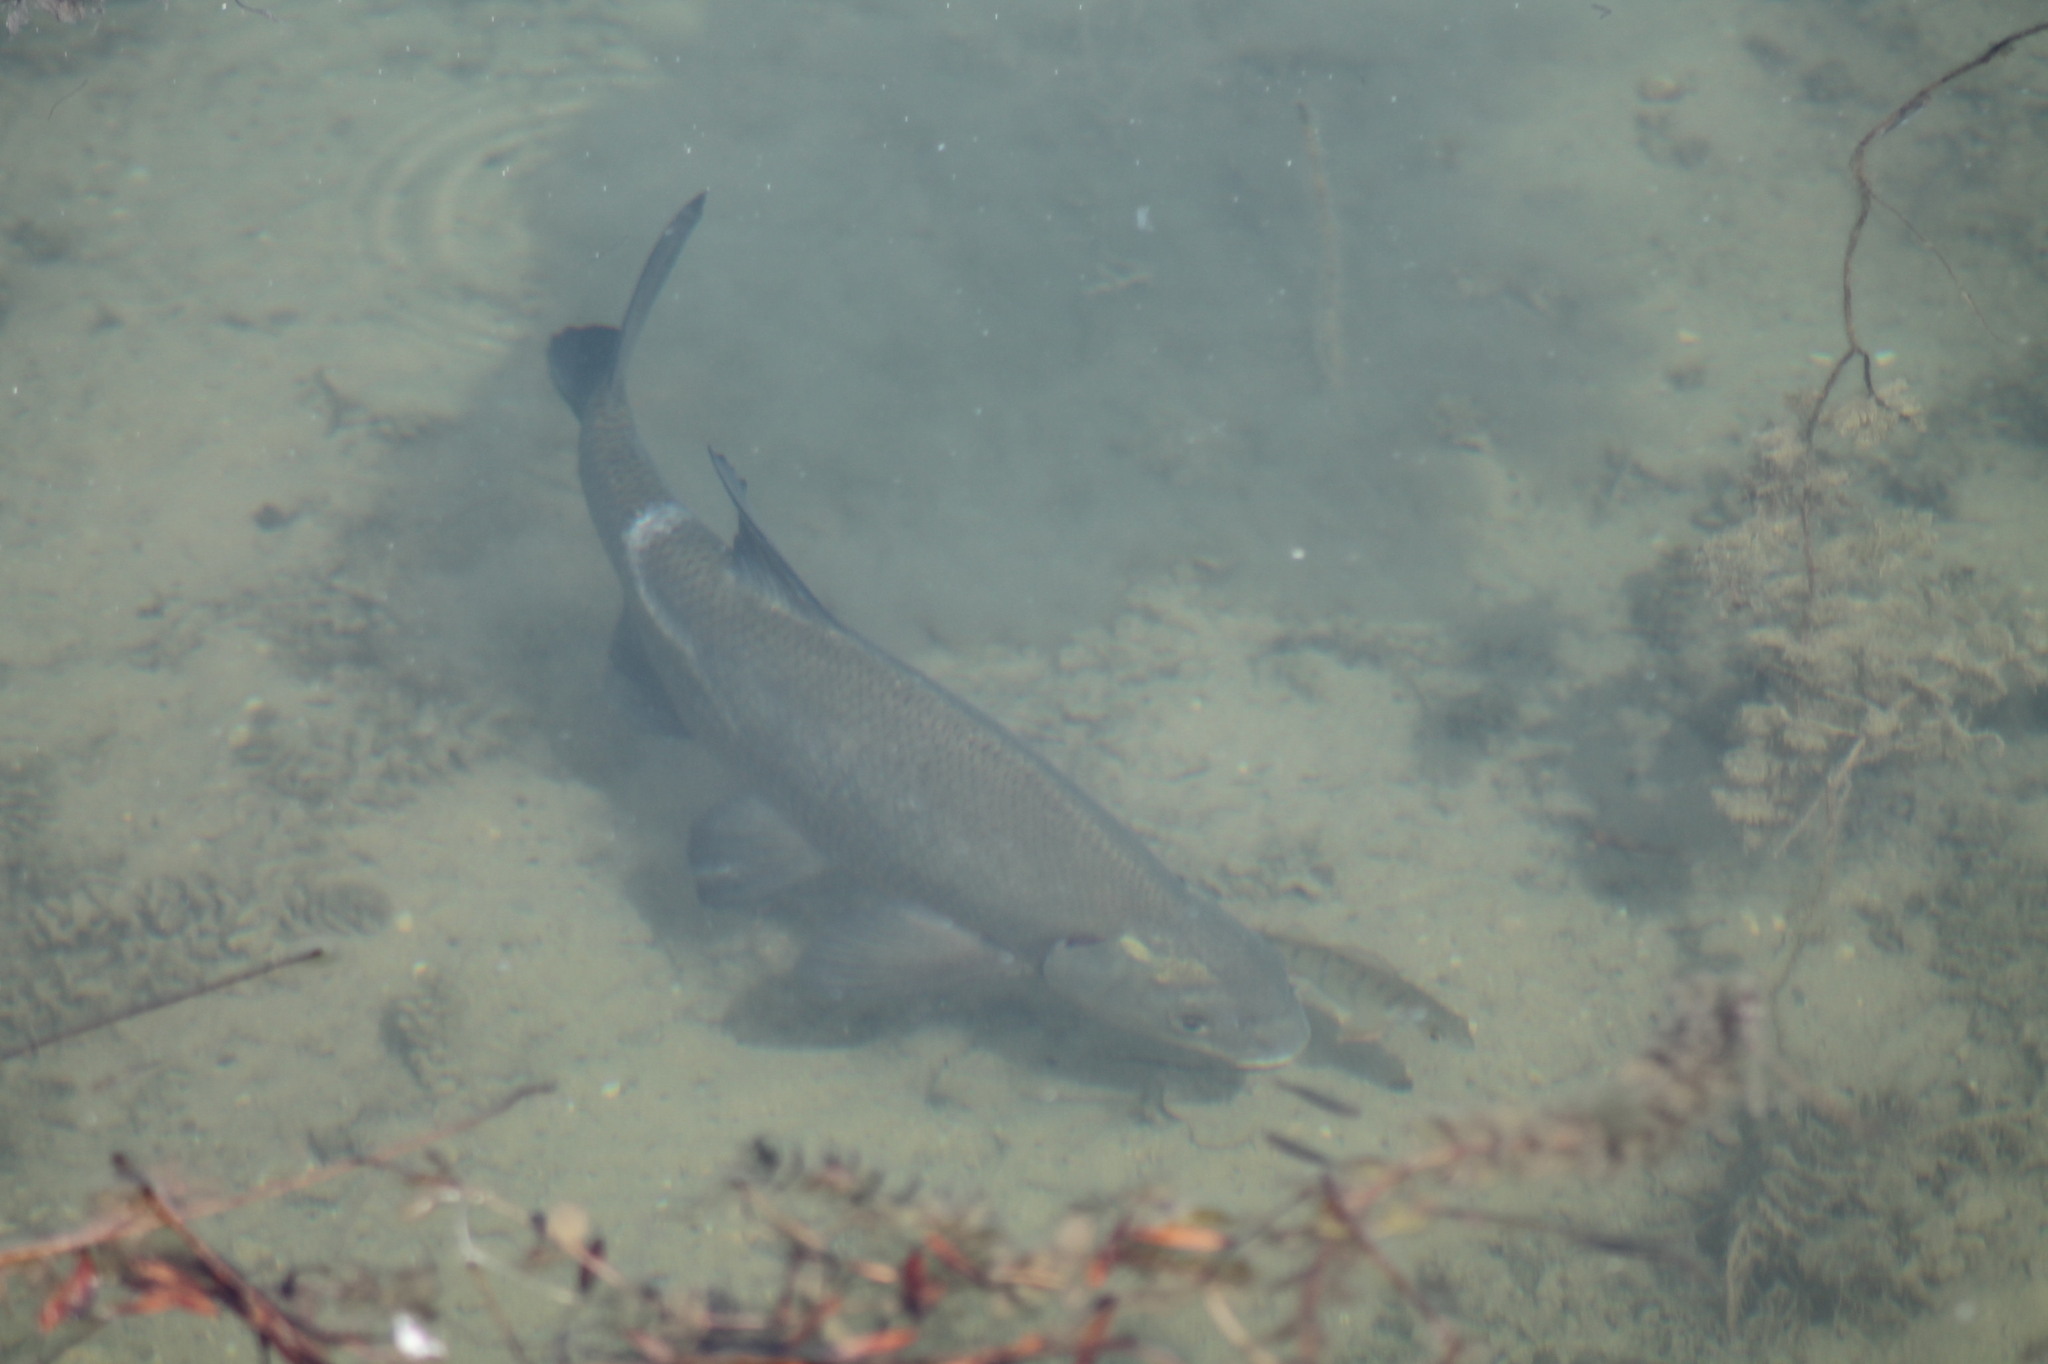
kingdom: Animalia
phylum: Chordata
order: Cypriniformes
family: Cyprinidae
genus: Abramis
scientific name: Abramis brama
